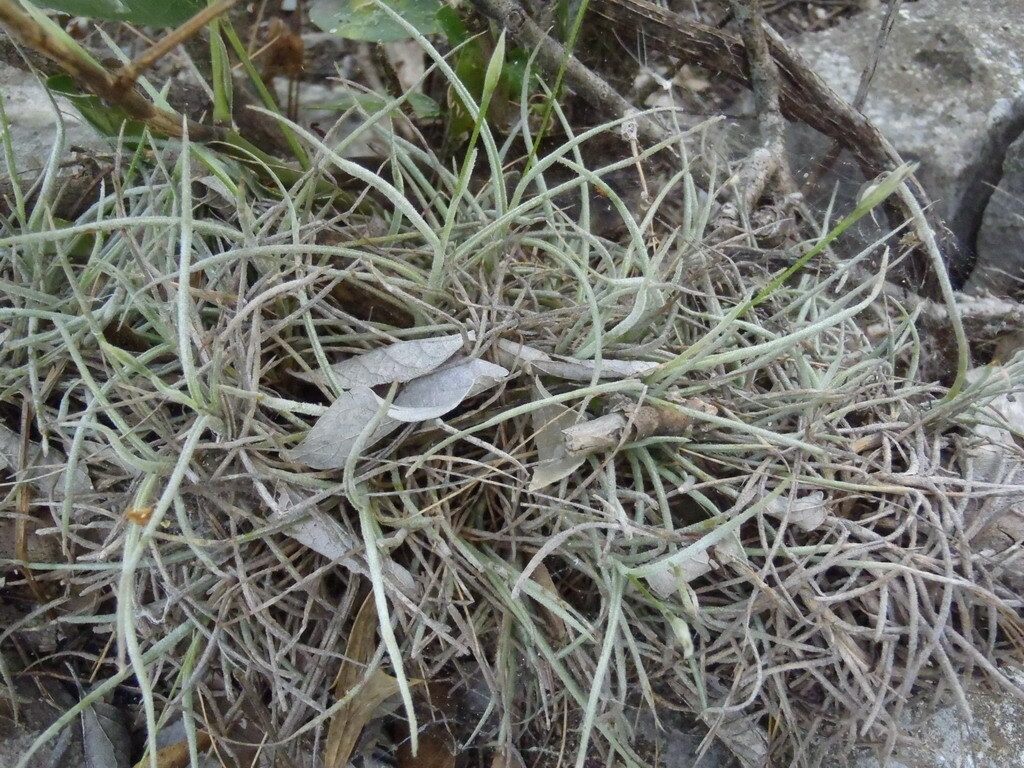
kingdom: Plantae
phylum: Tracheophyta
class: Liliopsida
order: Poales
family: Bromeliaceae
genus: Tillandsia
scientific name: Tillandsia recurvata
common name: Small ballmoss
